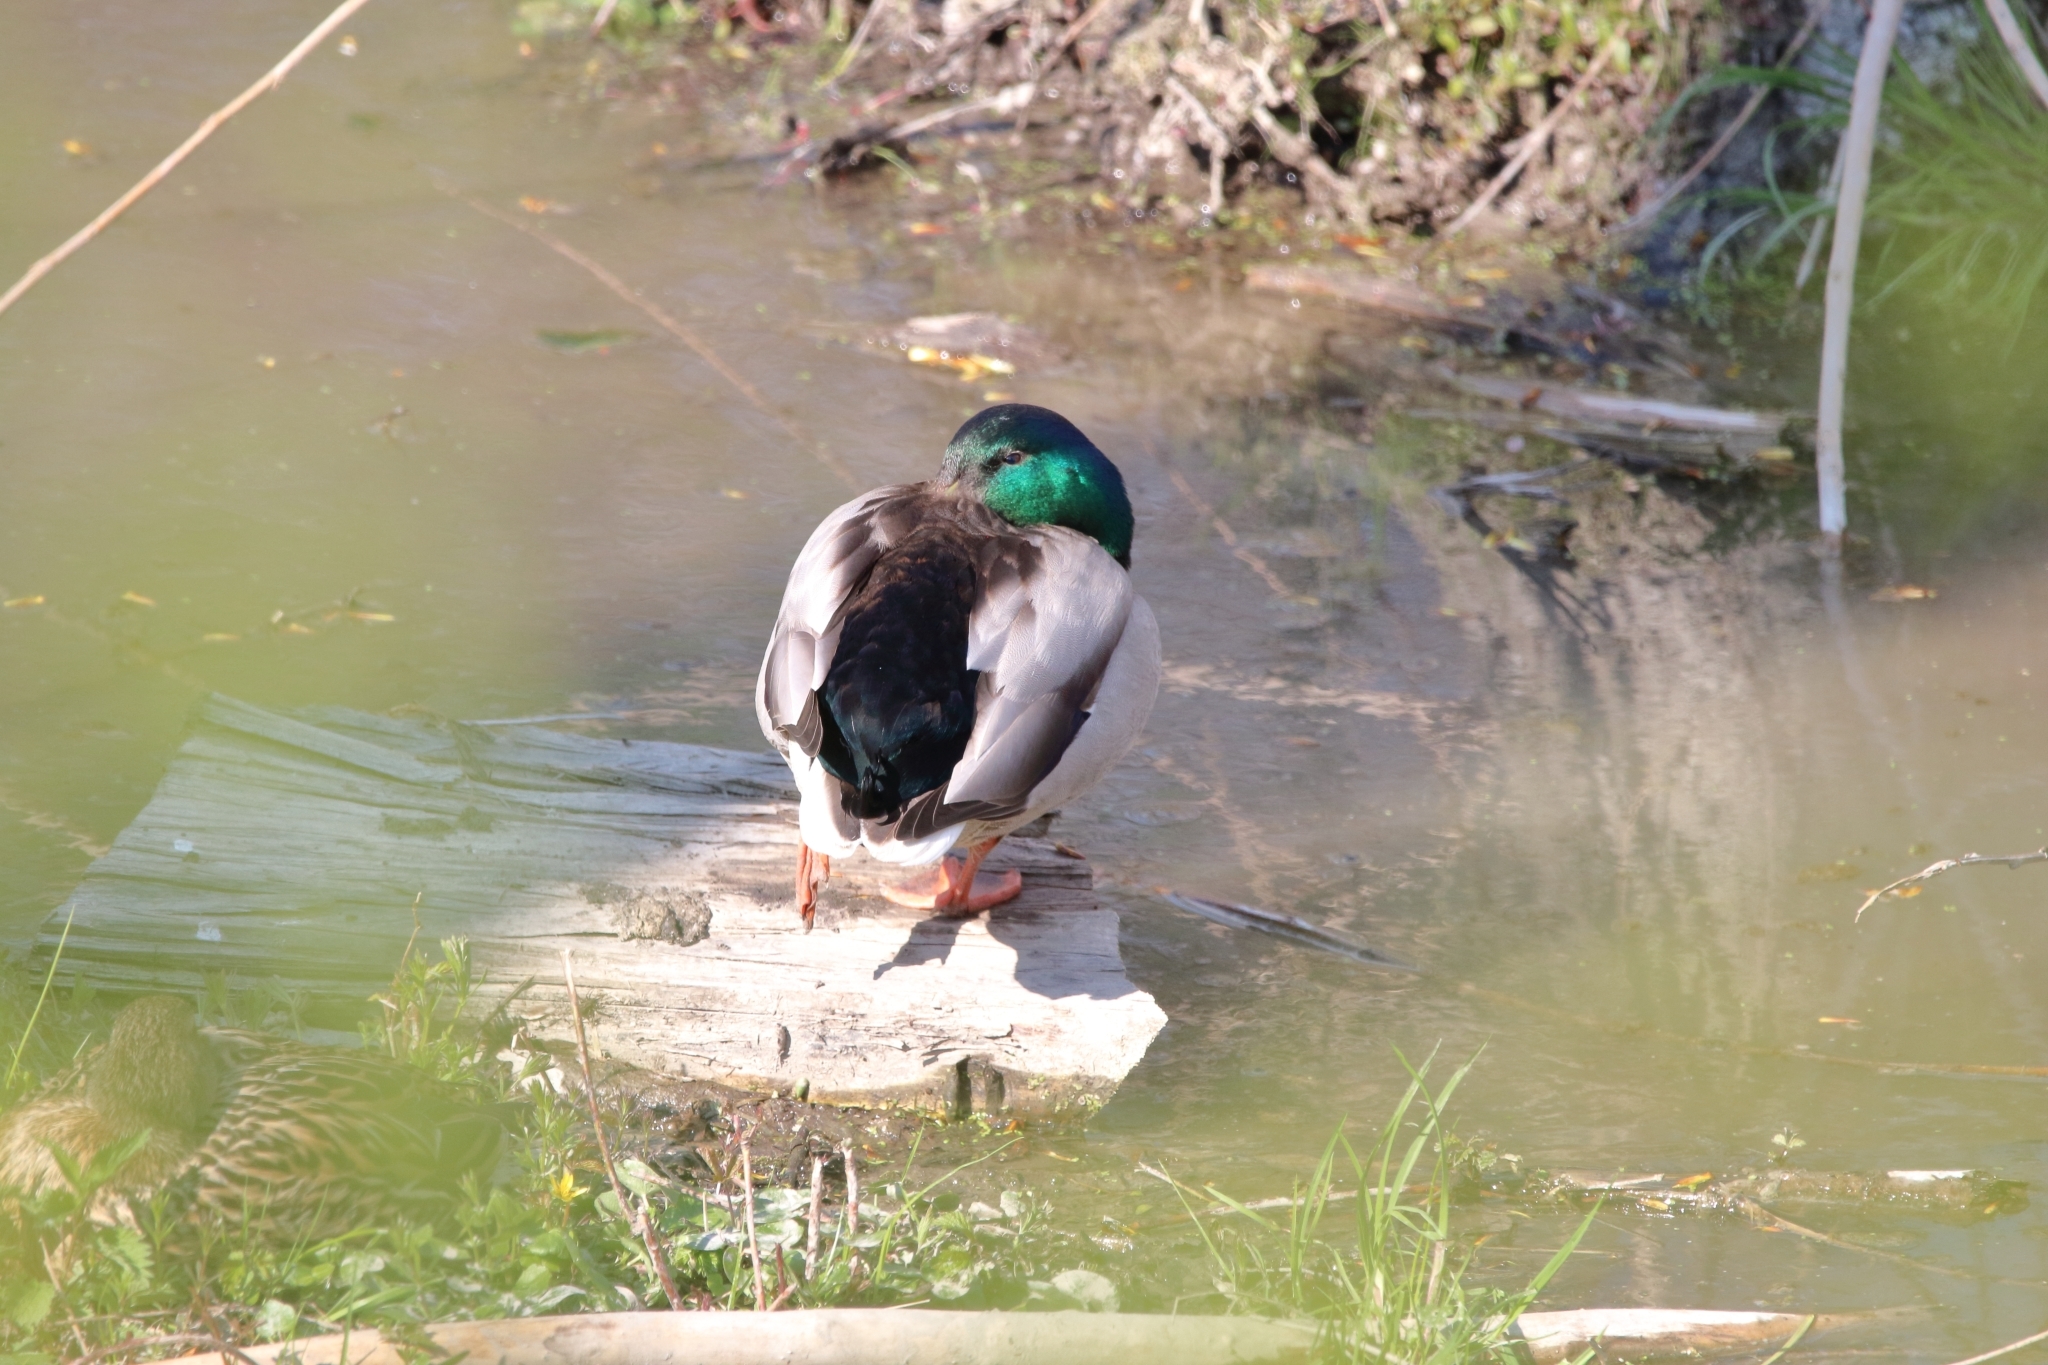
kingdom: Animalia
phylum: Chordata
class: Aves
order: Anseriformes
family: Anatidae
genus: Anas
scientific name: Anas platyrhynchos
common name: Mallard
